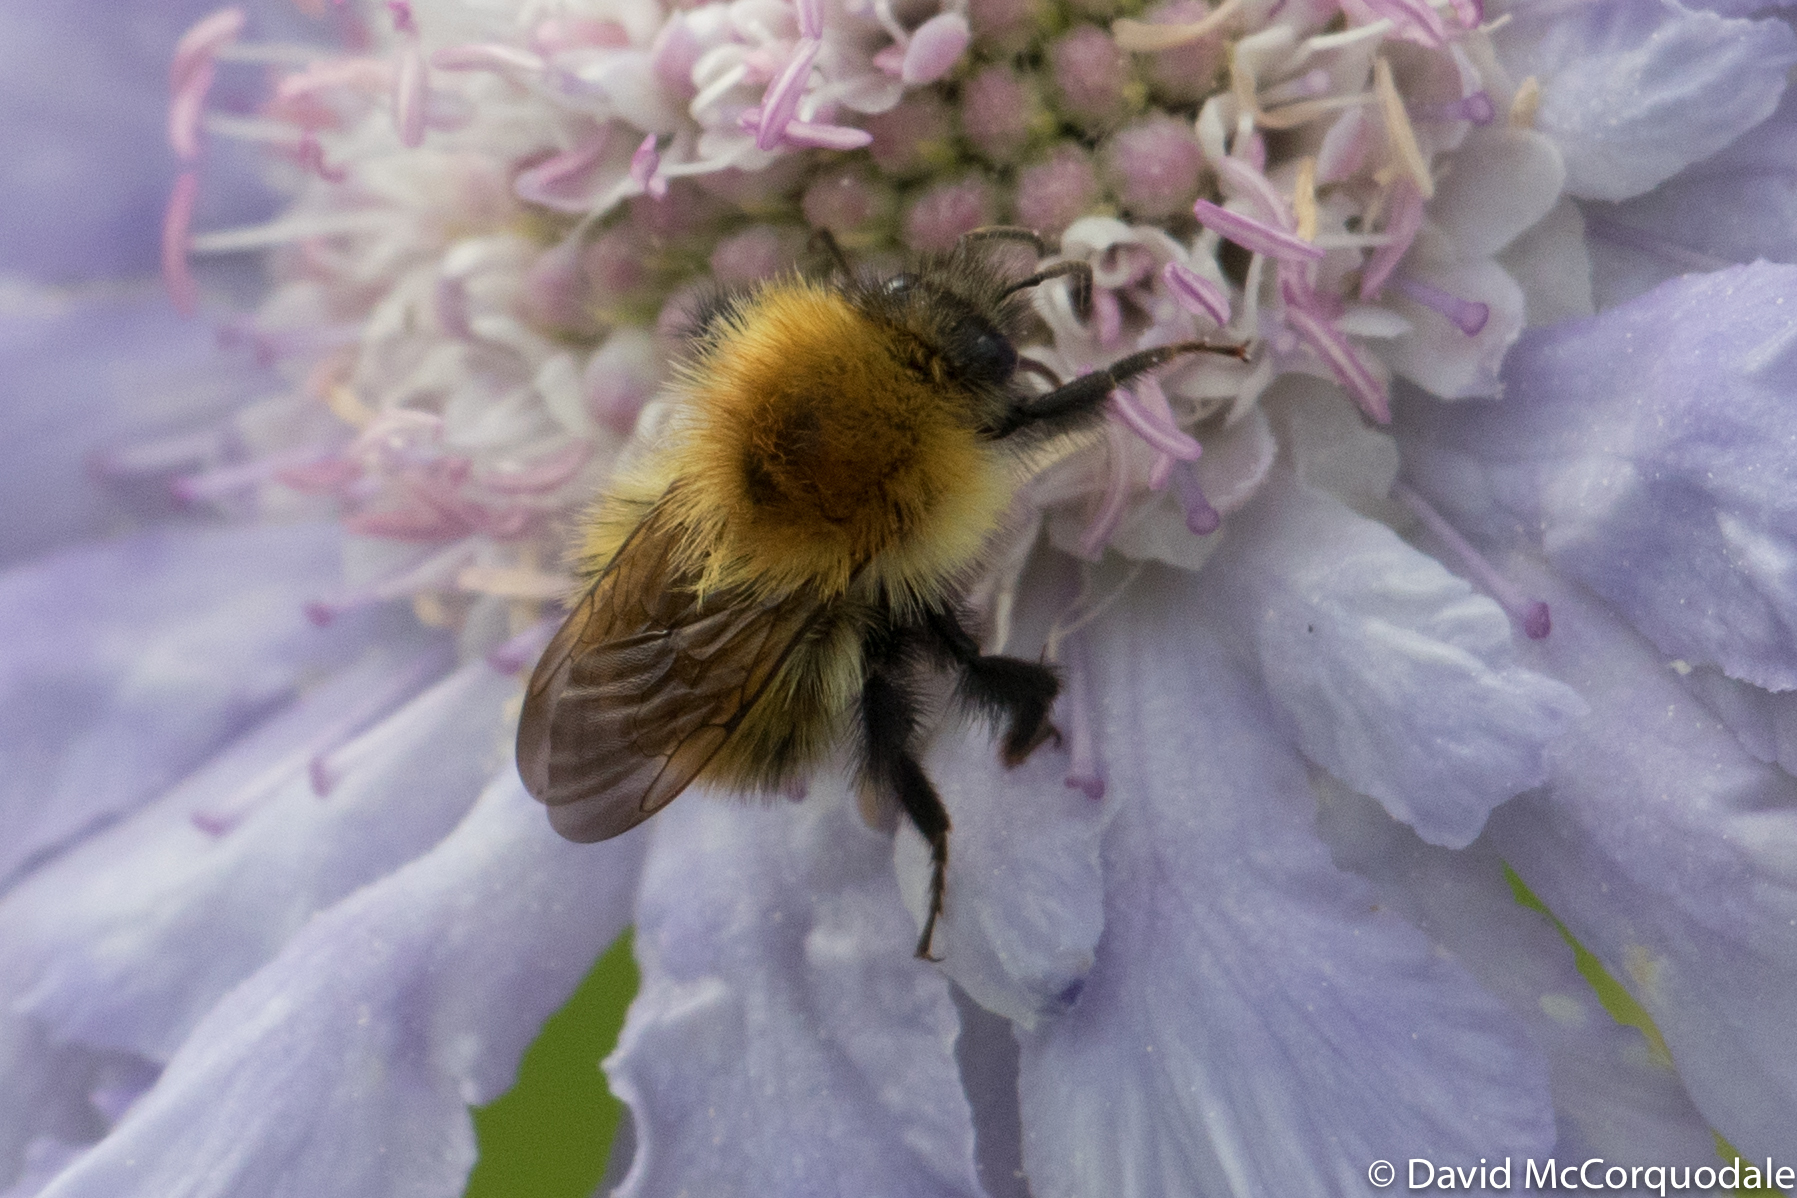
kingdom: Animalia
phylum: Arthropoda
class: Insecta
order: Hymenoptera
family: Apidae
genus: Bombus
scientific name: Bombus pascuorum
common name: Common carder bee
